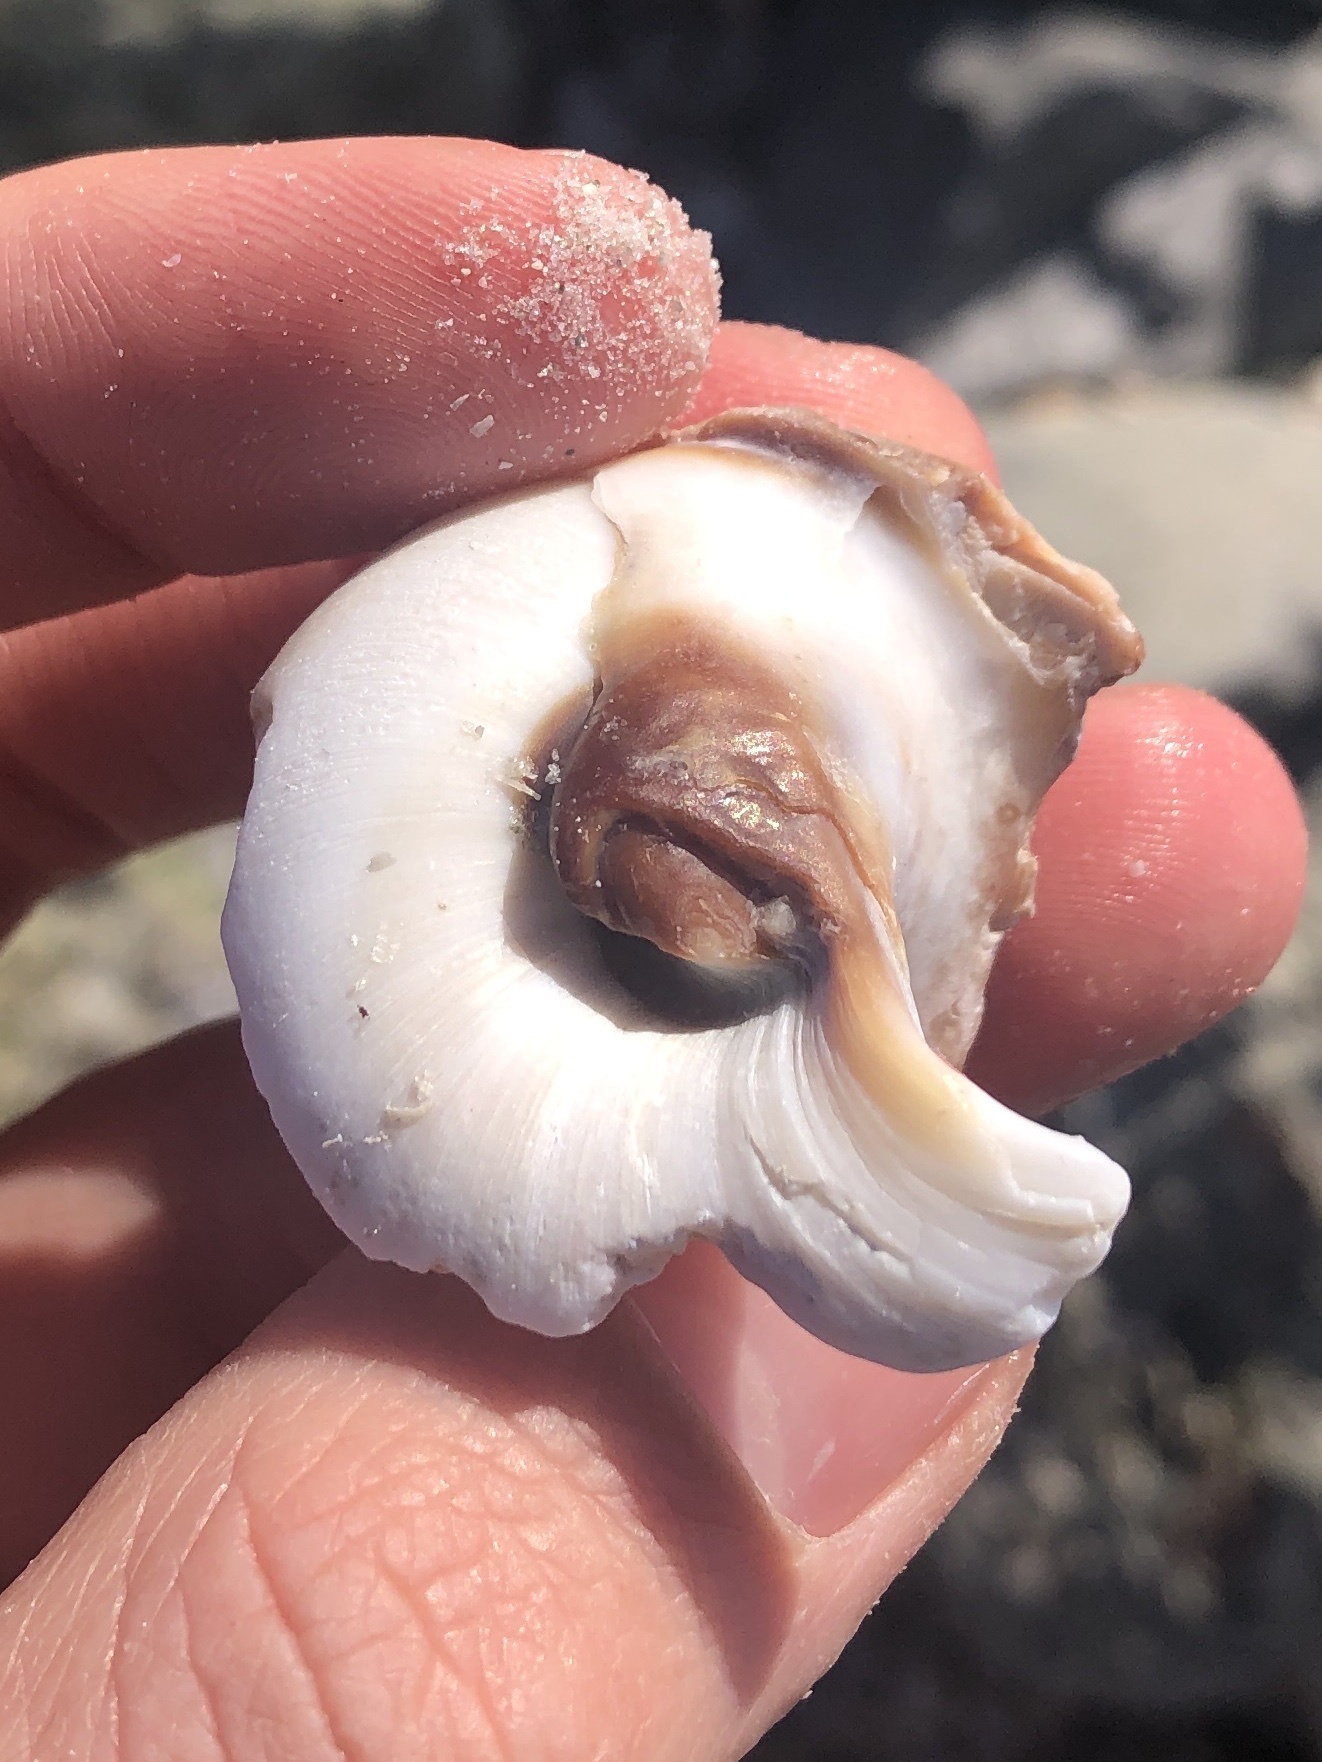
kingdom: Animalia
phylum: Mollusca
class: Gastropoda
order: Littorinimorpha
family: Naticidae
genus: Neverita
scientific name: Neverita duplicata
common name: Lobed moonsnail
